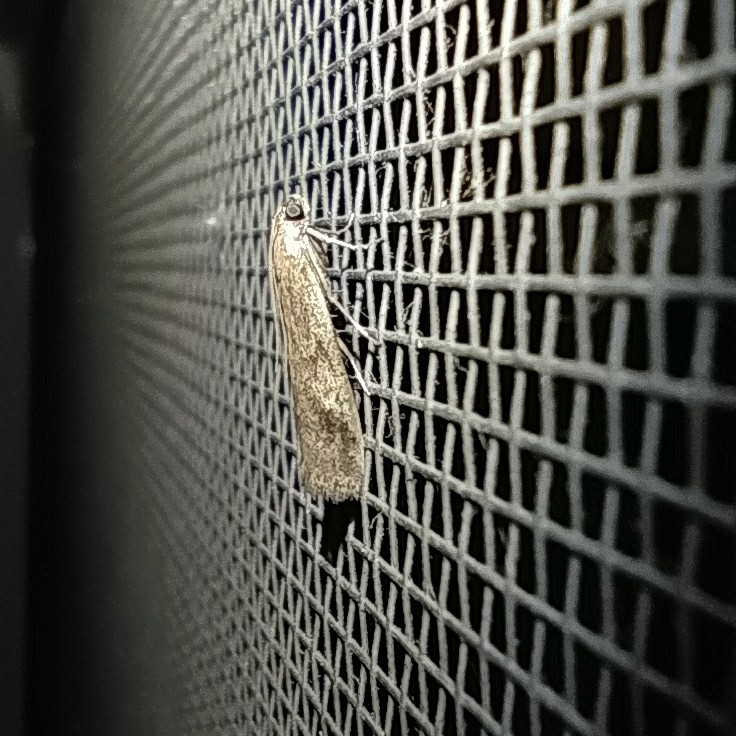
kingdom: Animalia
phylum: Arthropoda
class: Insecta
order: Lepidoptera
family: Pyralidae
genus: Euzophera
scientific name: Euzophera cinerosella
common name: Wormwood knot-horn
